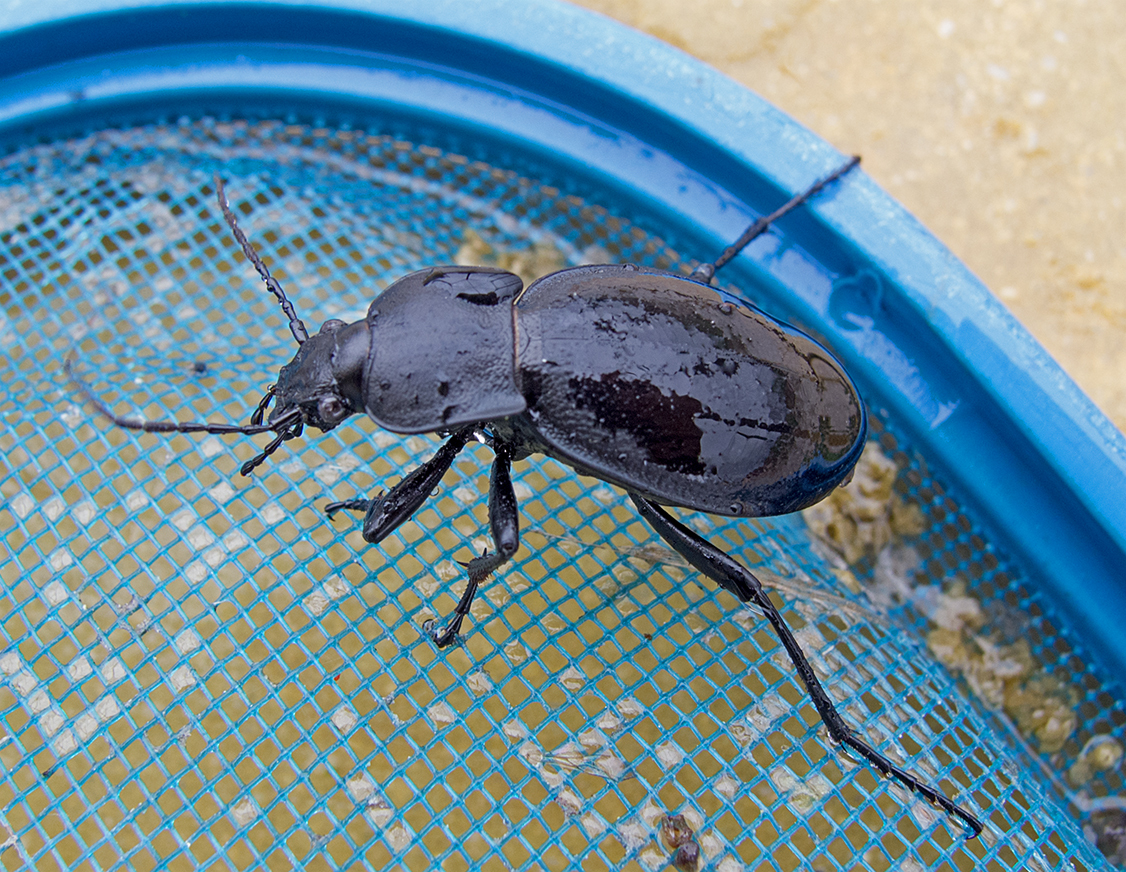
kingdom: Animalia
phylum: Arthropoda
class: Insecta
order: Coleoptera
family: Carabidae
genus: Carabus
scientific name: Carabus coriaceus
